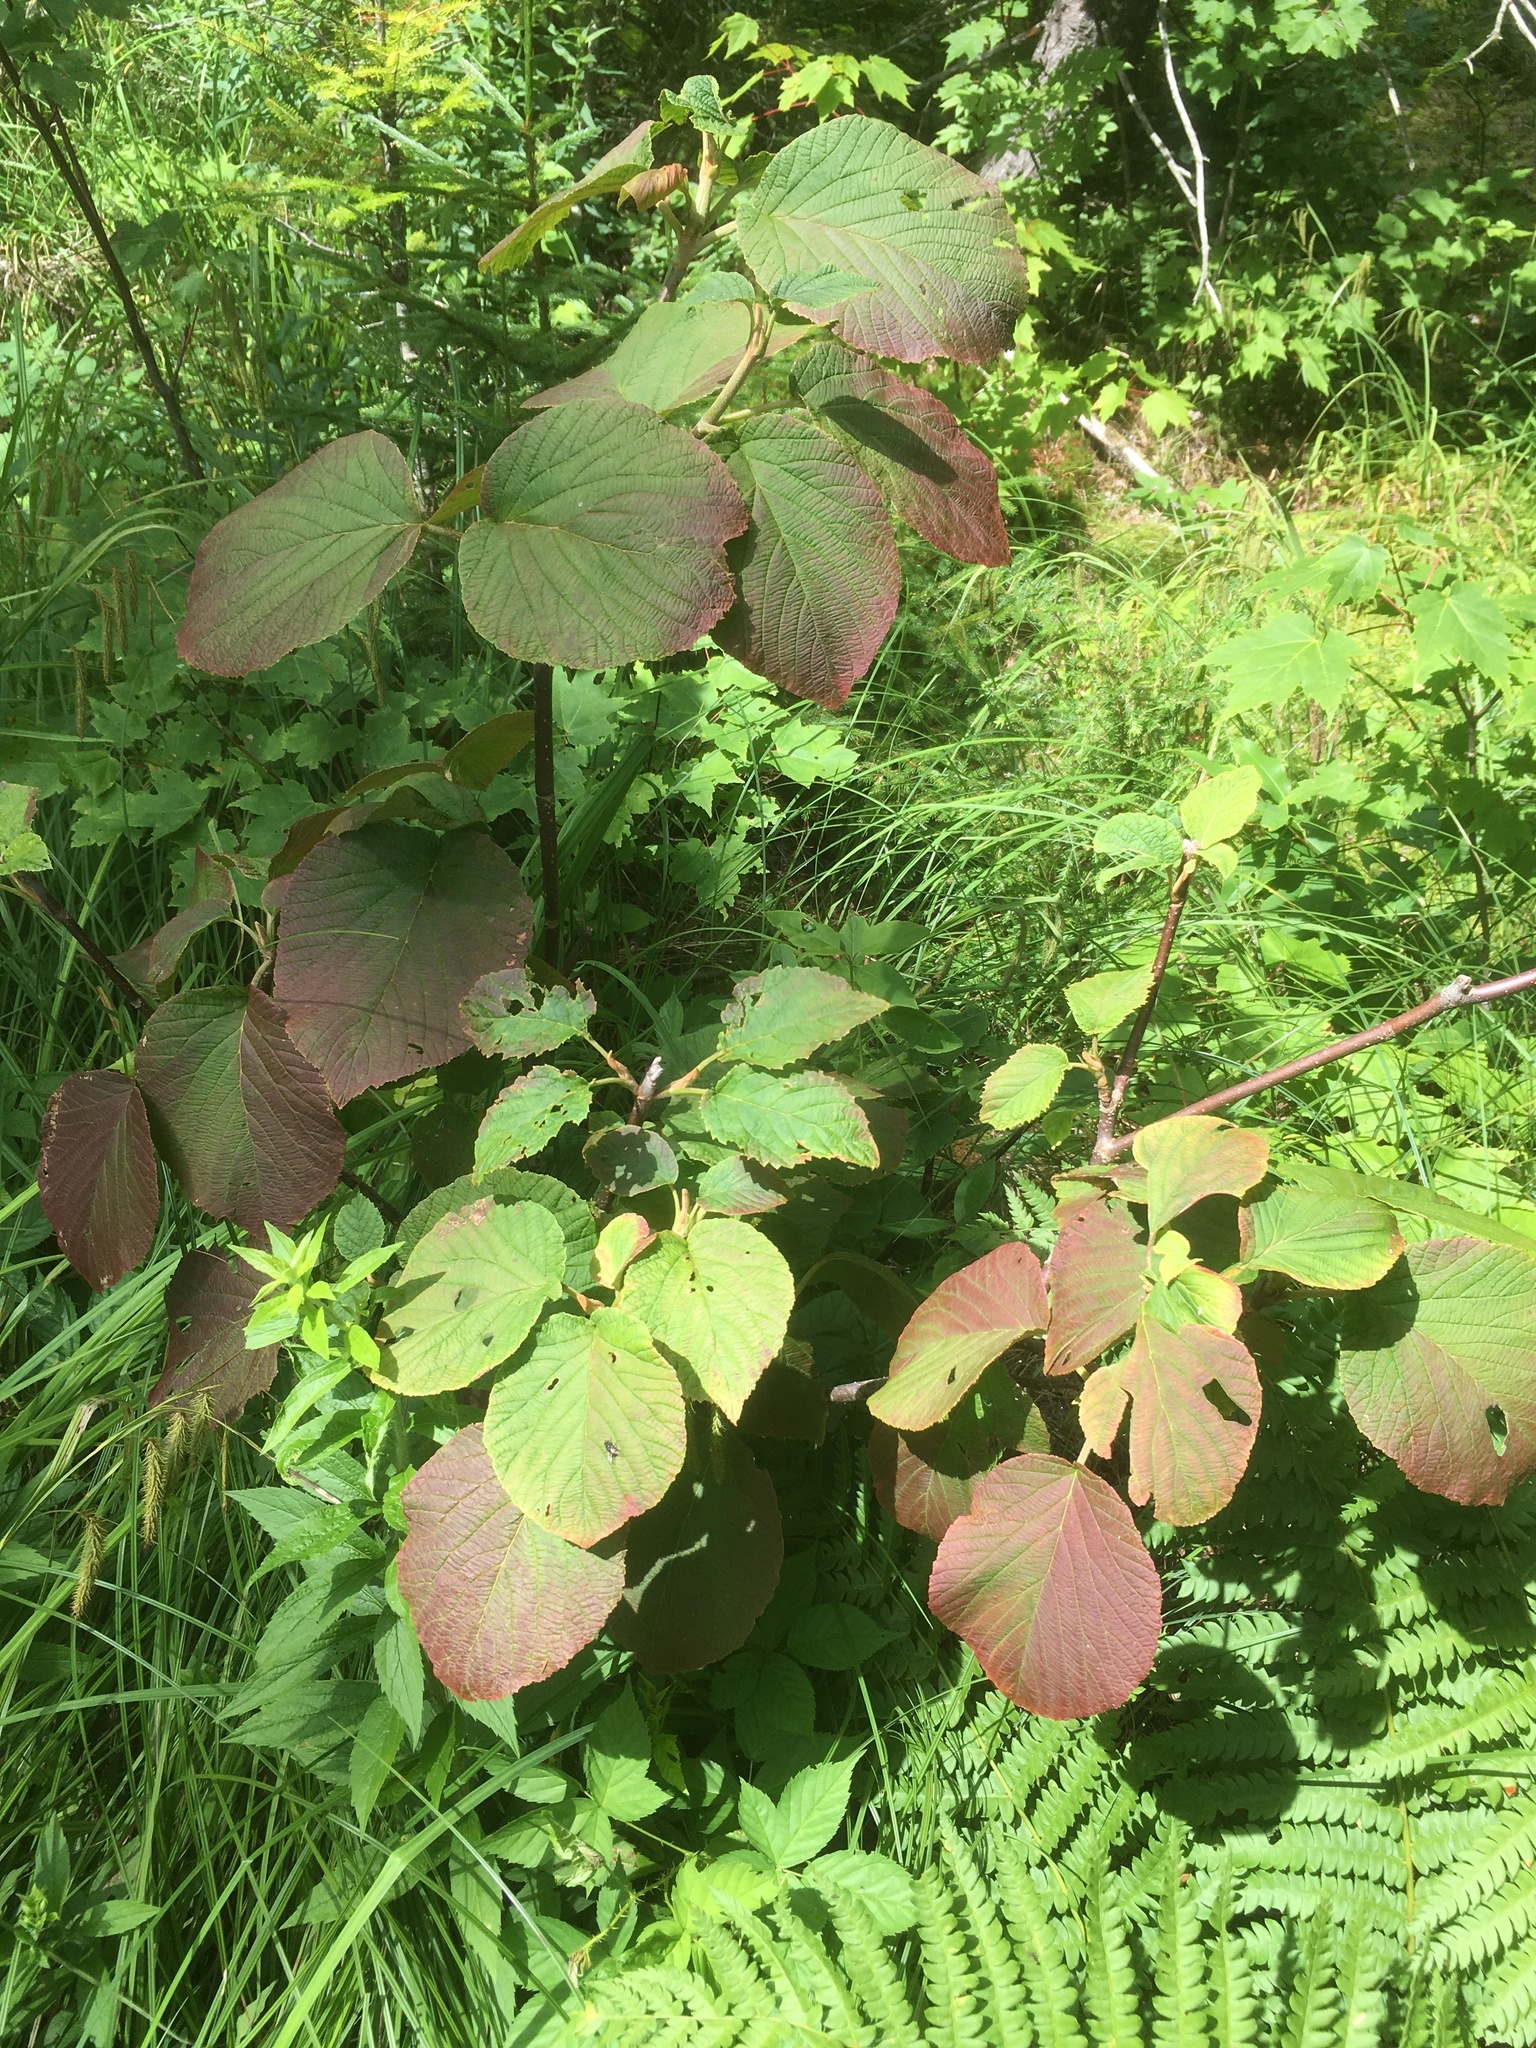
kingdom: Plantae
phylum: Tracheophyta
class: Magnoliopsida
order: Dipsacales
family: Viburnaceae
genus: Viburnum
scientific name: Viburnum lantanoides
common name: Hobblebush
